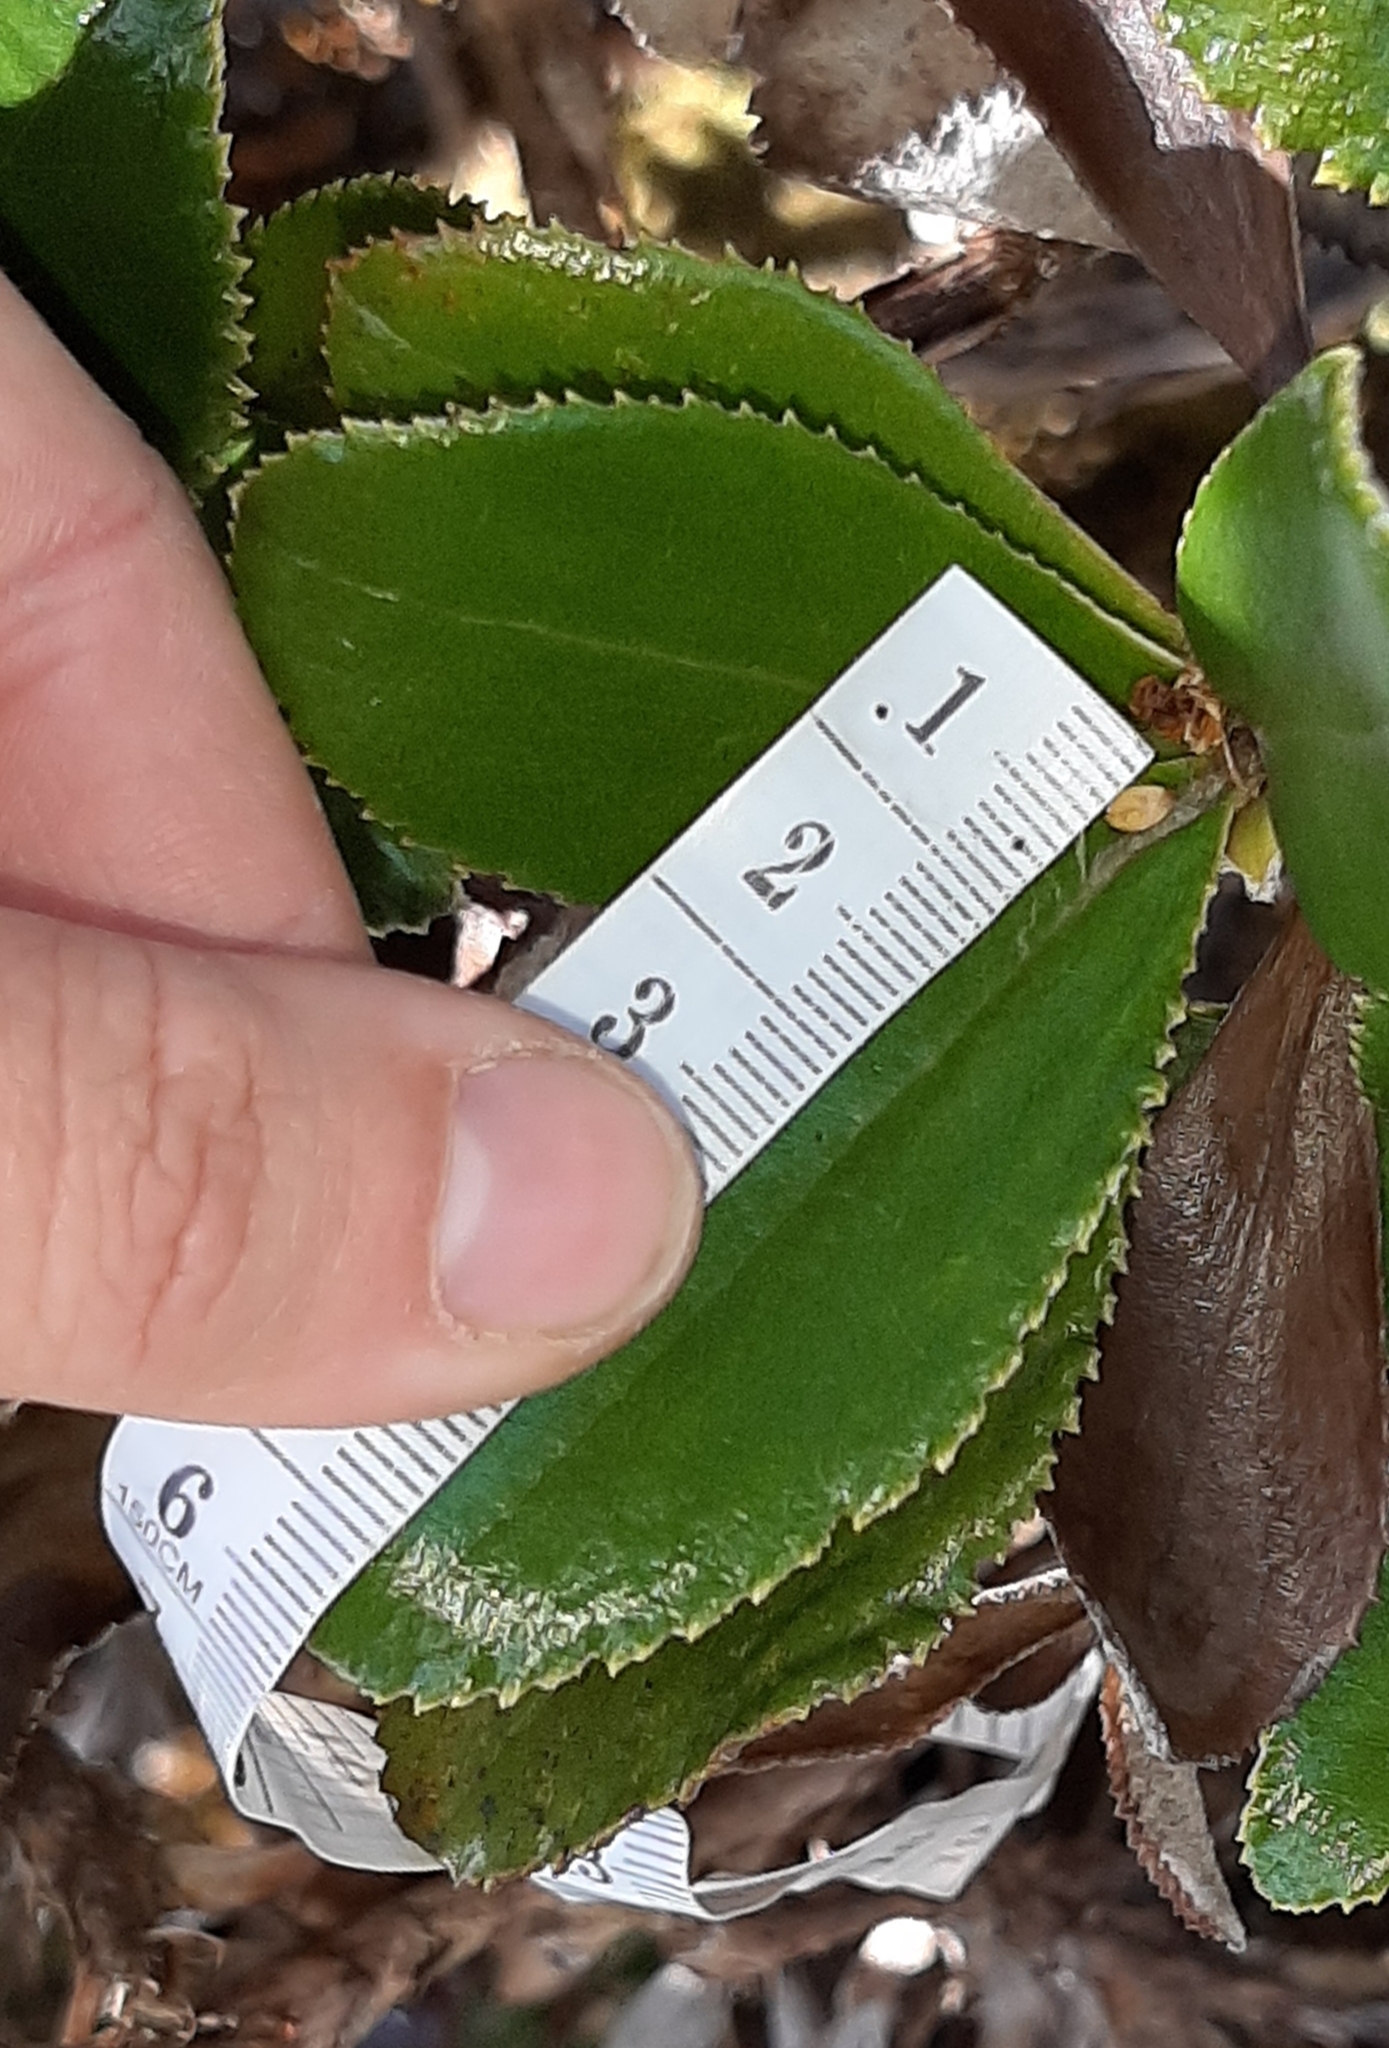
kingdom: Plantae
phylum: Tracheophyta
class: Magnoliopsida
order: Asterales
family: Asteraceae
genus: Macrolearia
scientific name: Macrolearia colensoi
